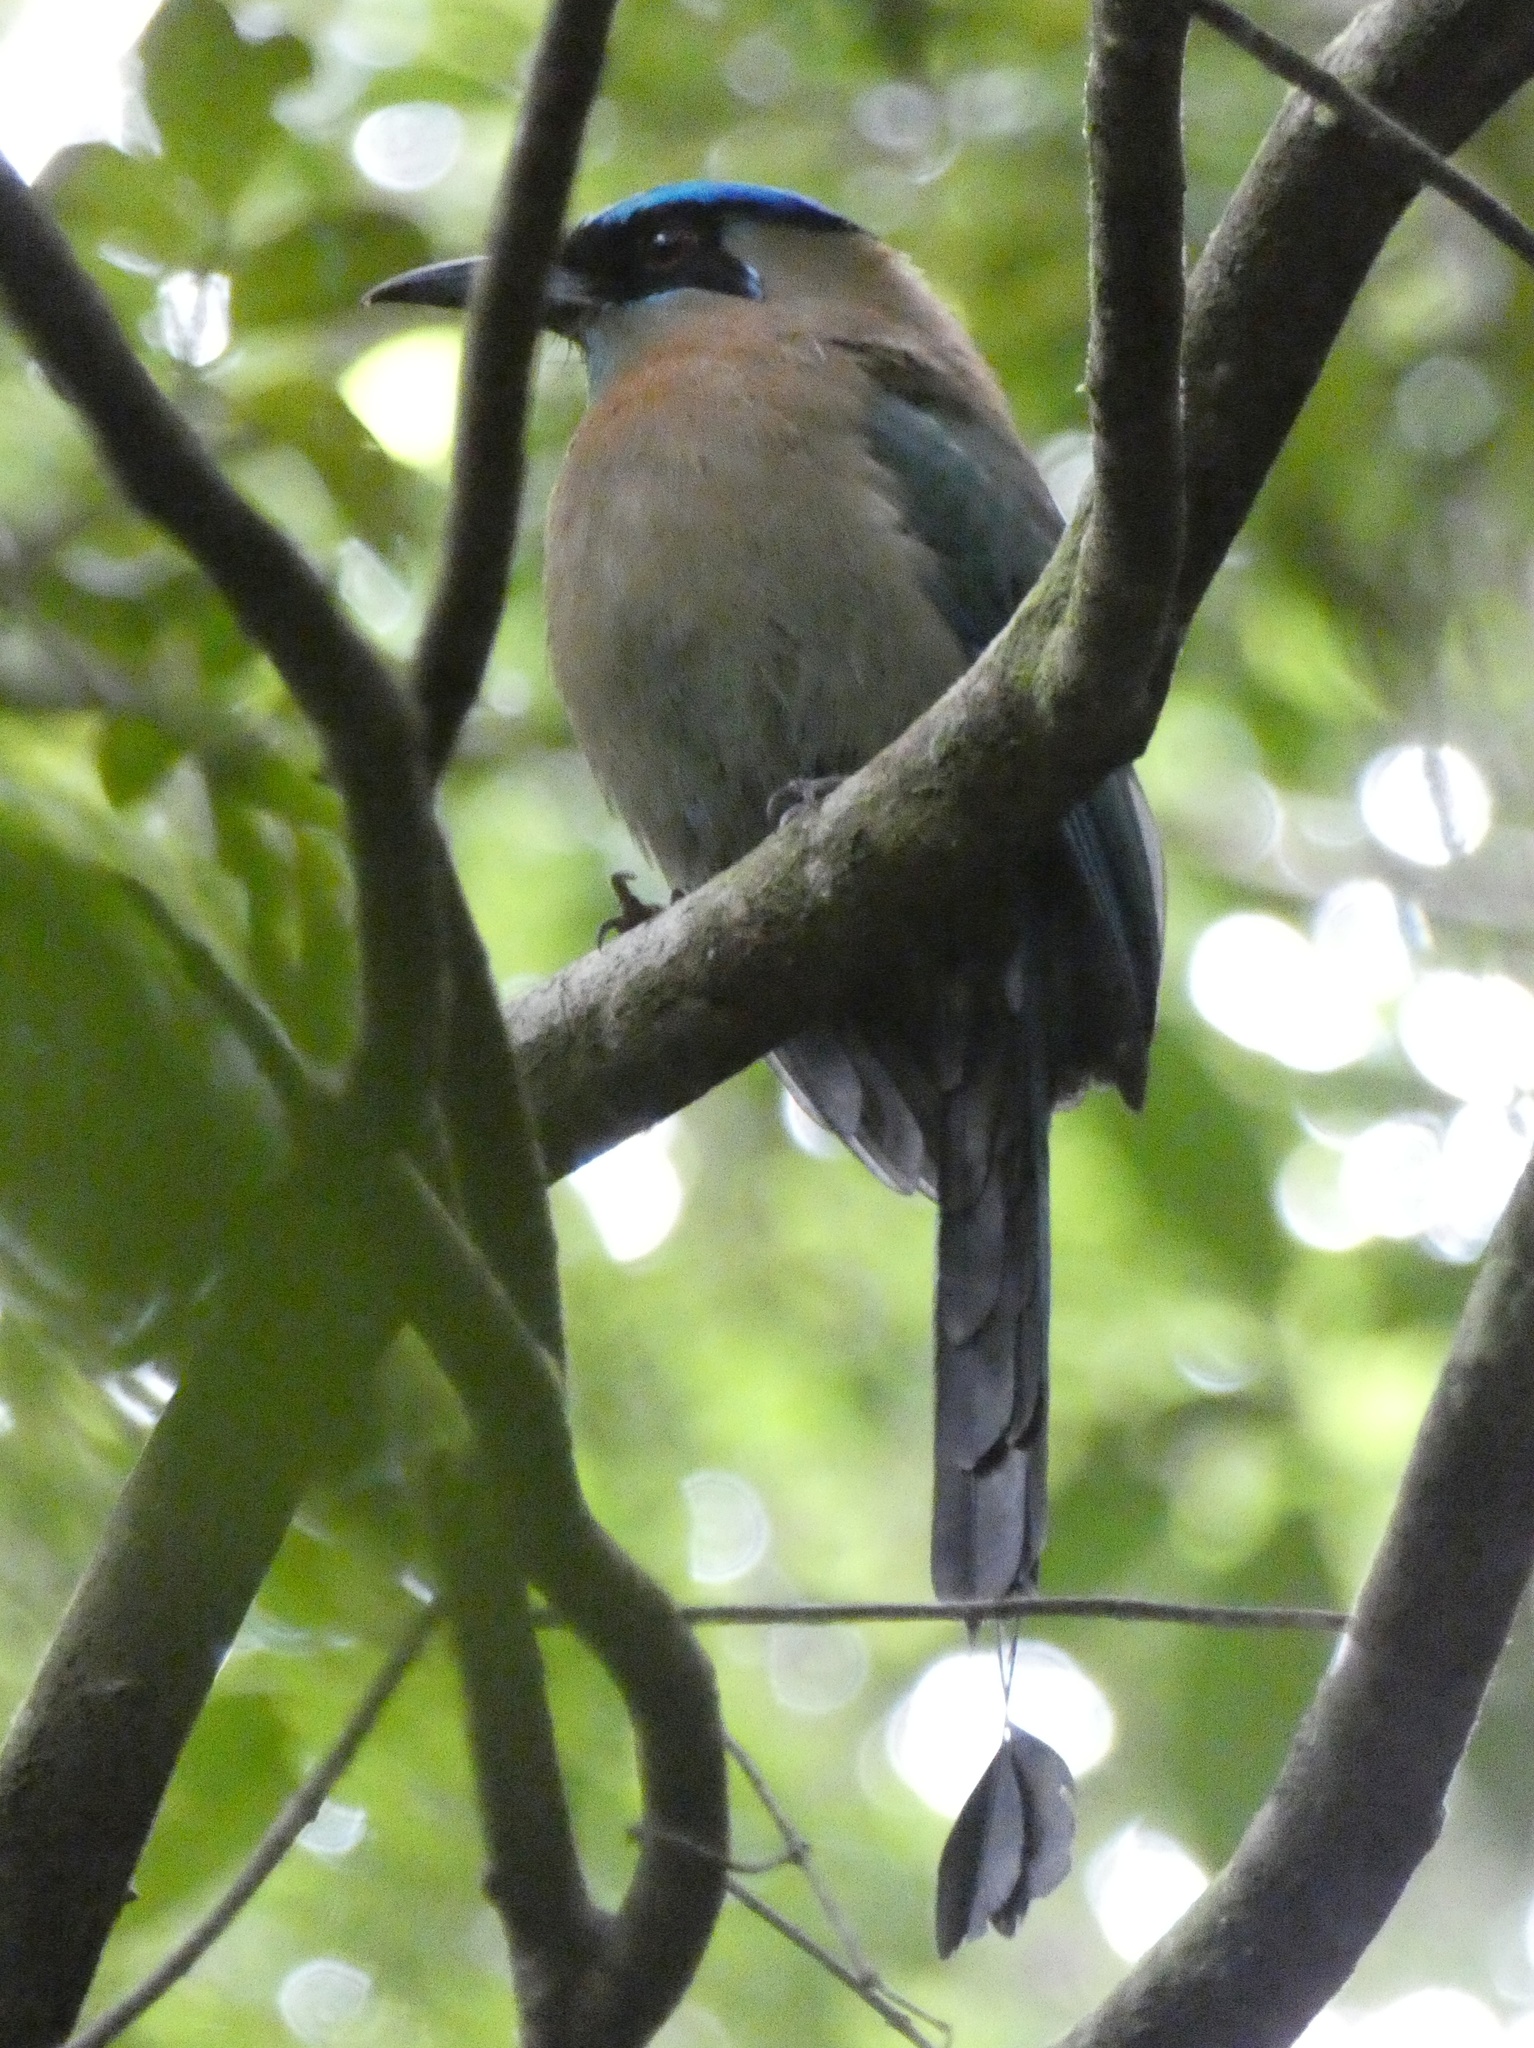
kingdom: Animalia
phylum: Chordata
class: Aves
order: Coraciiformes
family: Momotidae
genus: Momotus
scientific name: Momotus lessonii
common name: Lesson's motmot
